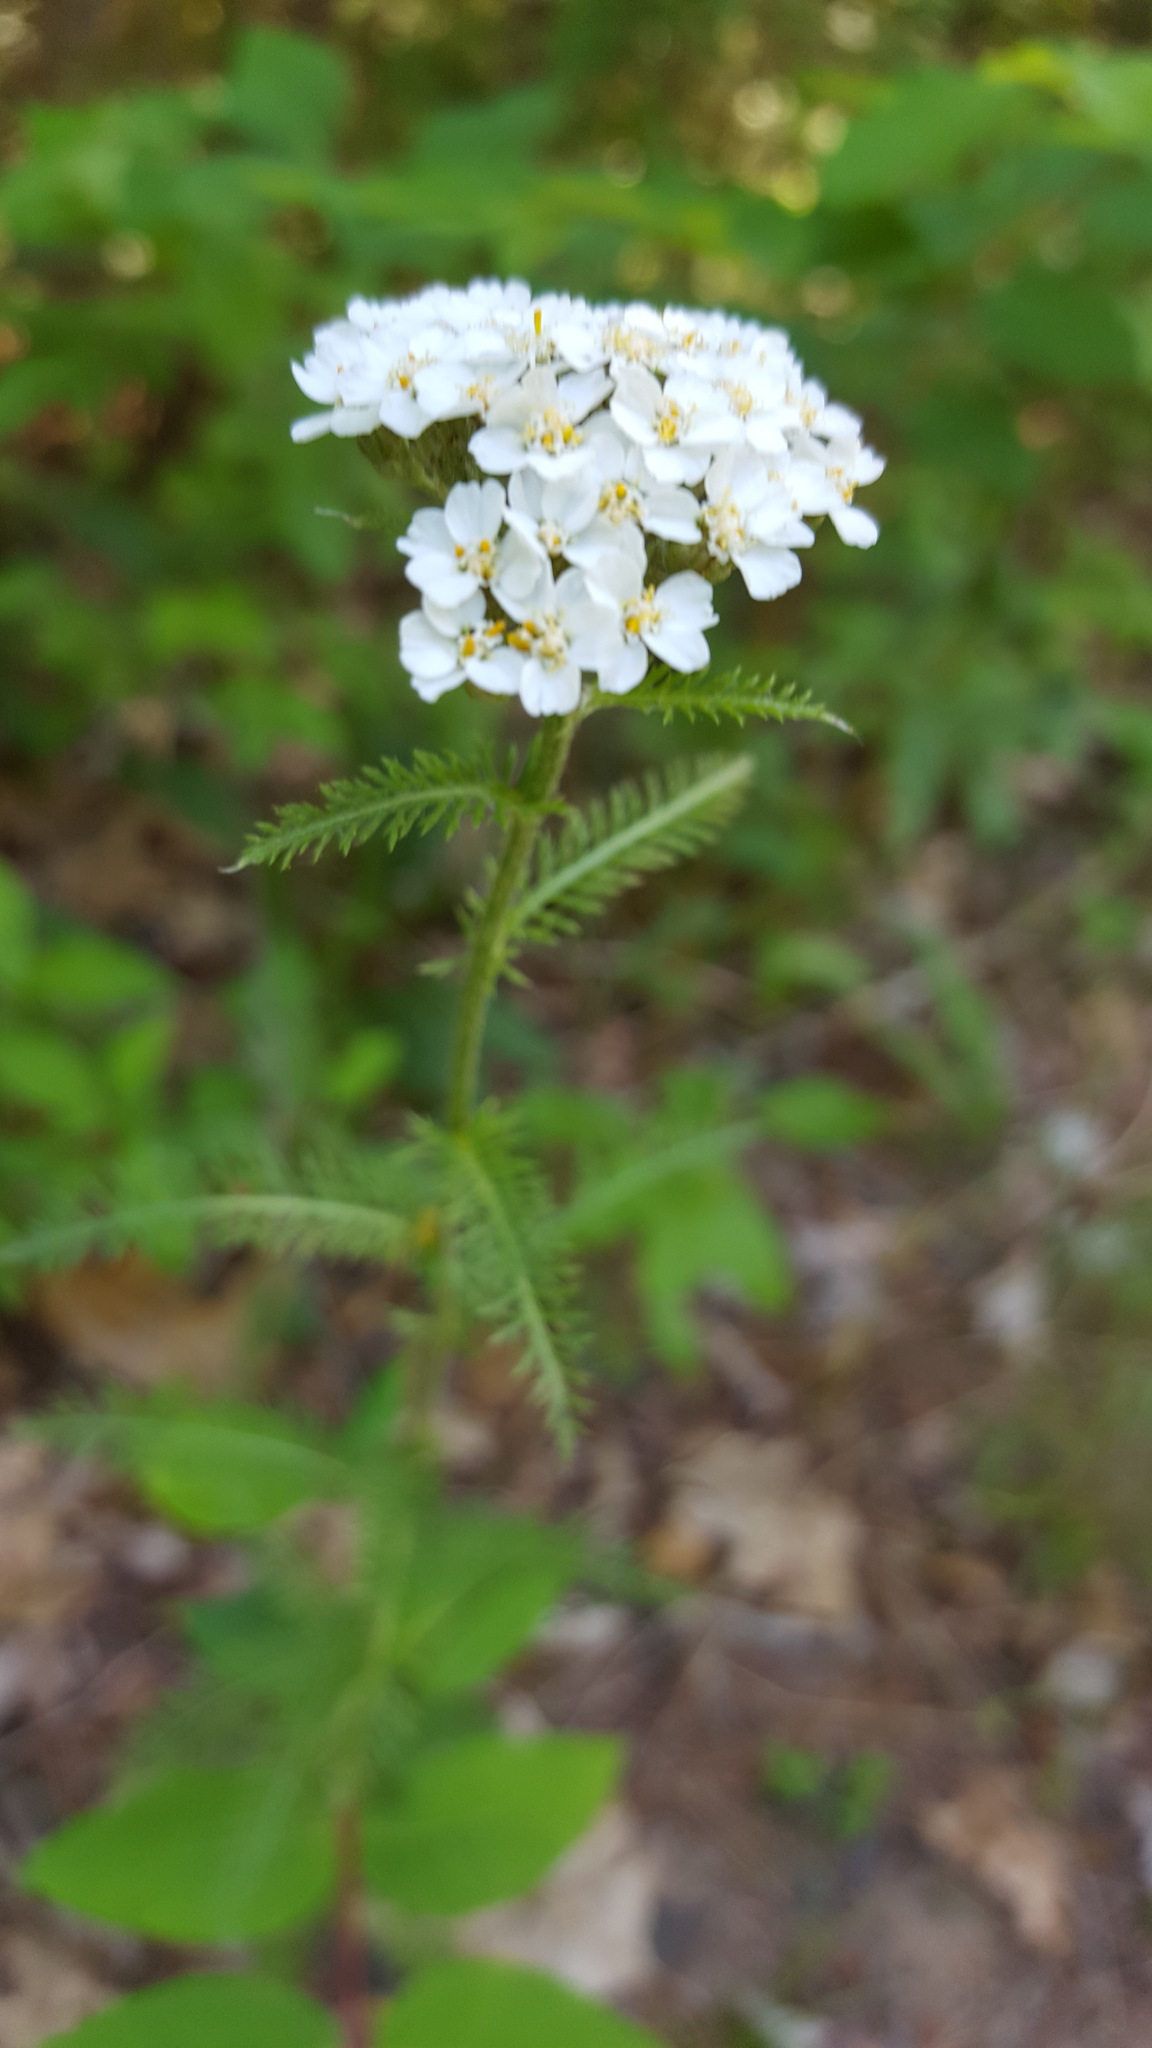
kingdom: Plantae
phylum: Tracheophyta
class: Magnoliopsida
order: Asterales
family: Asteraceae
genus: Achillea
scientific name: Achillea millefolium
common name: Yarrow
